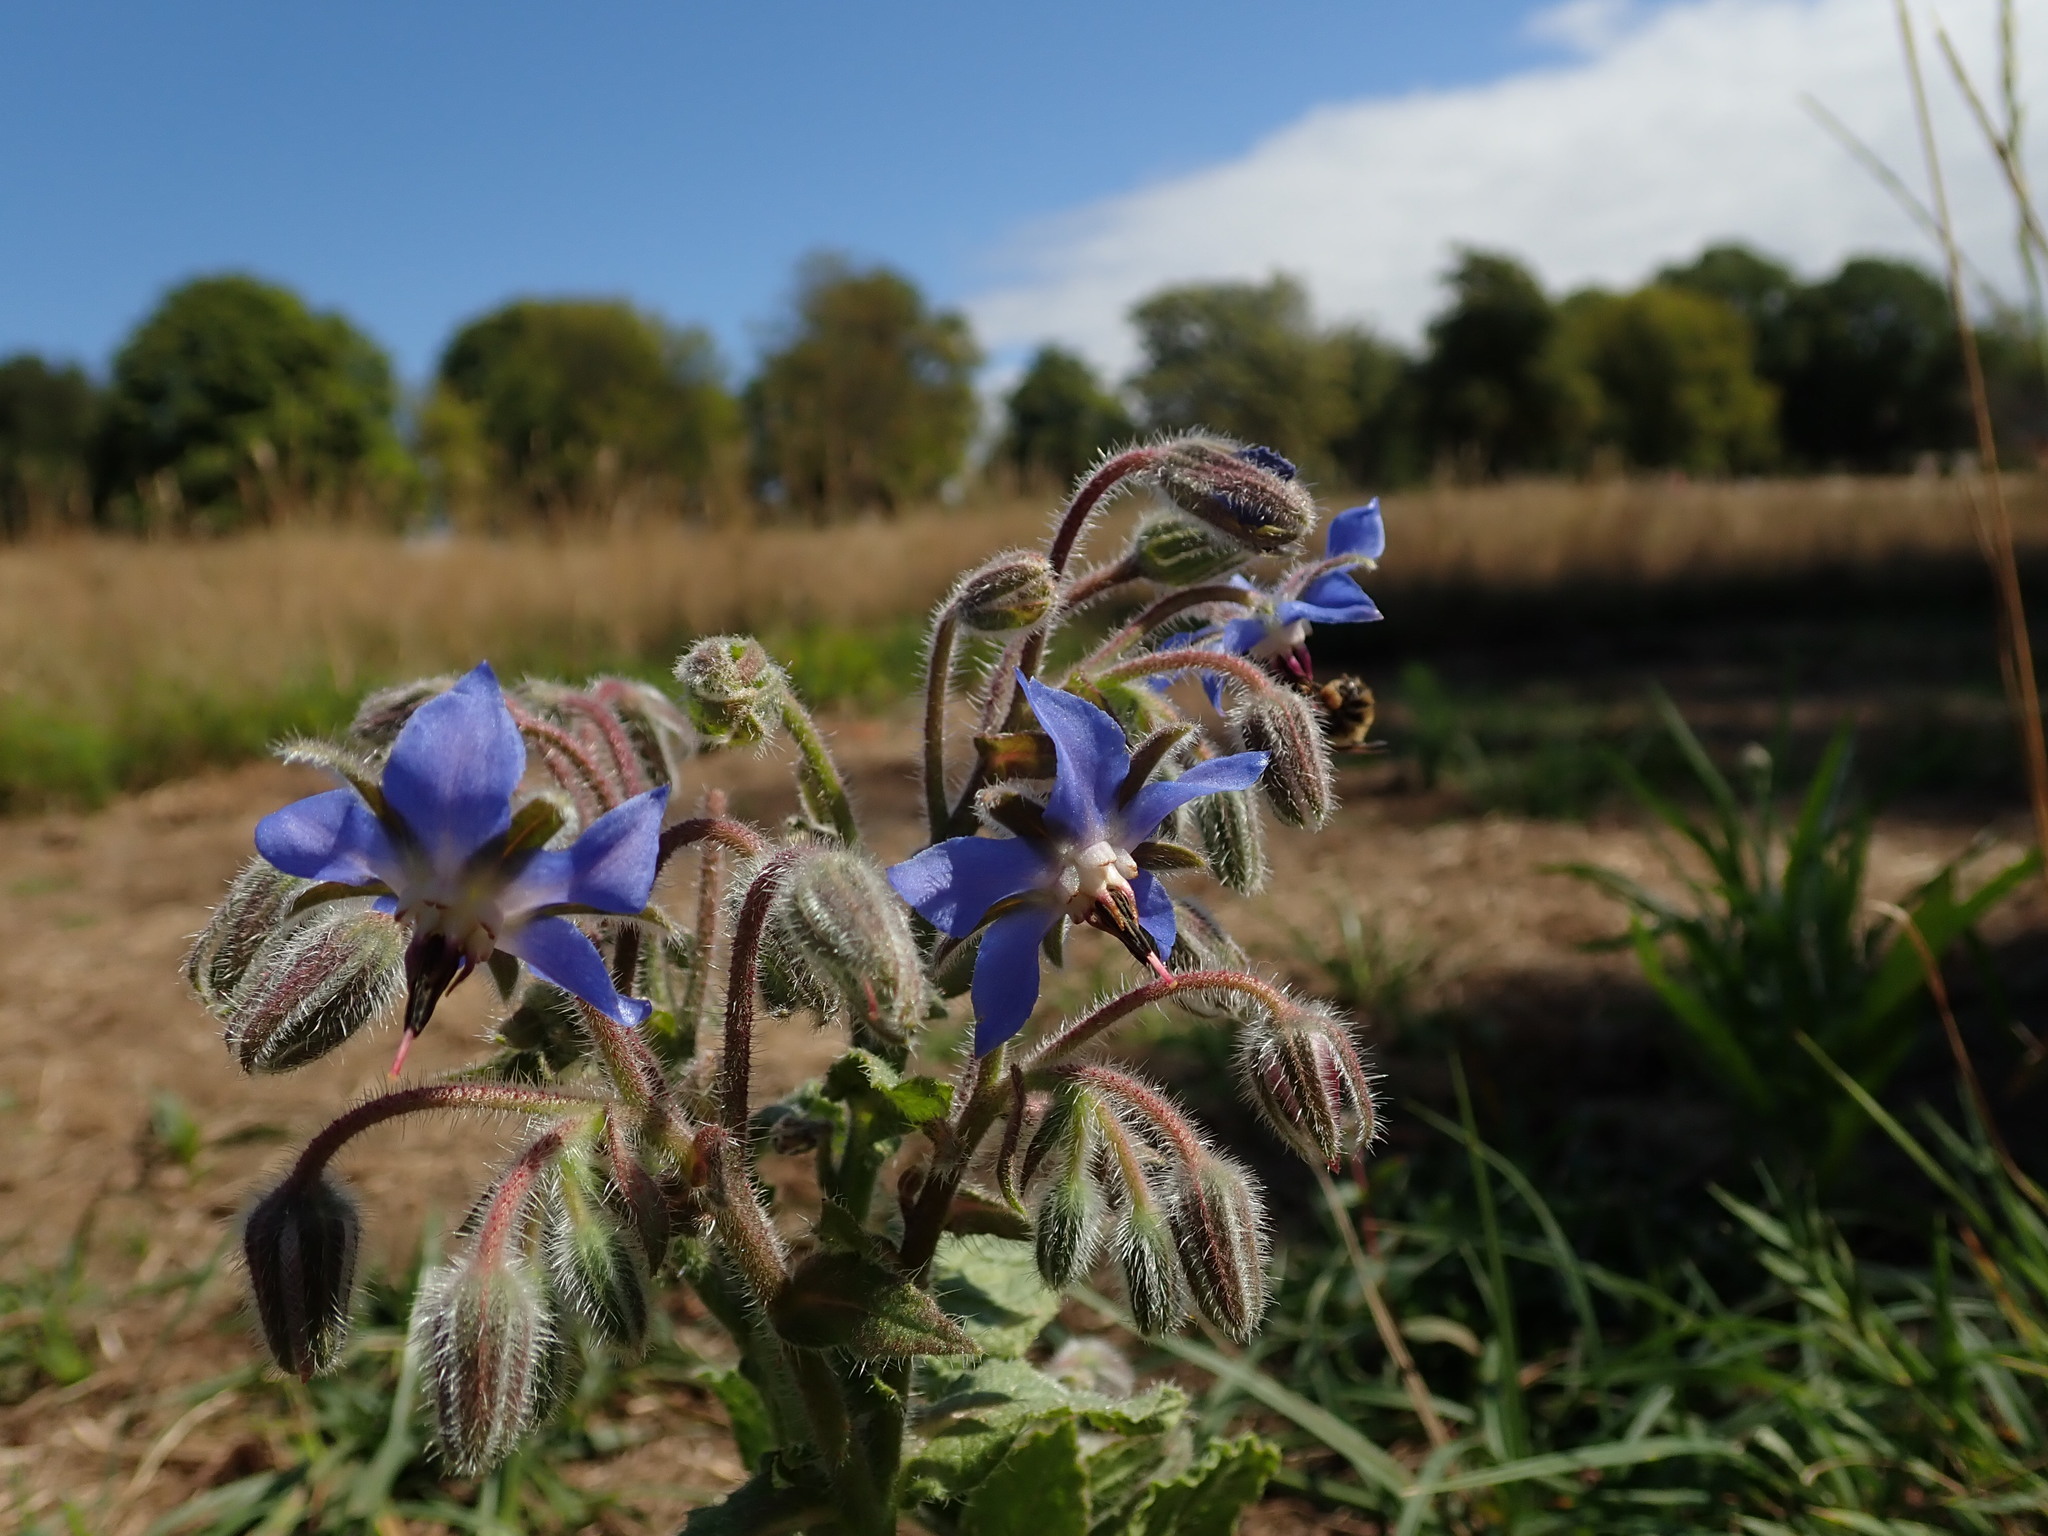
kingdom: Plantae
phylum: Tracheophyta
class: Magnoliopsida
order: Boraginales
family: Boraginaceae
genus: Borago
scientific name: Borago officinalis
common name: Borage
